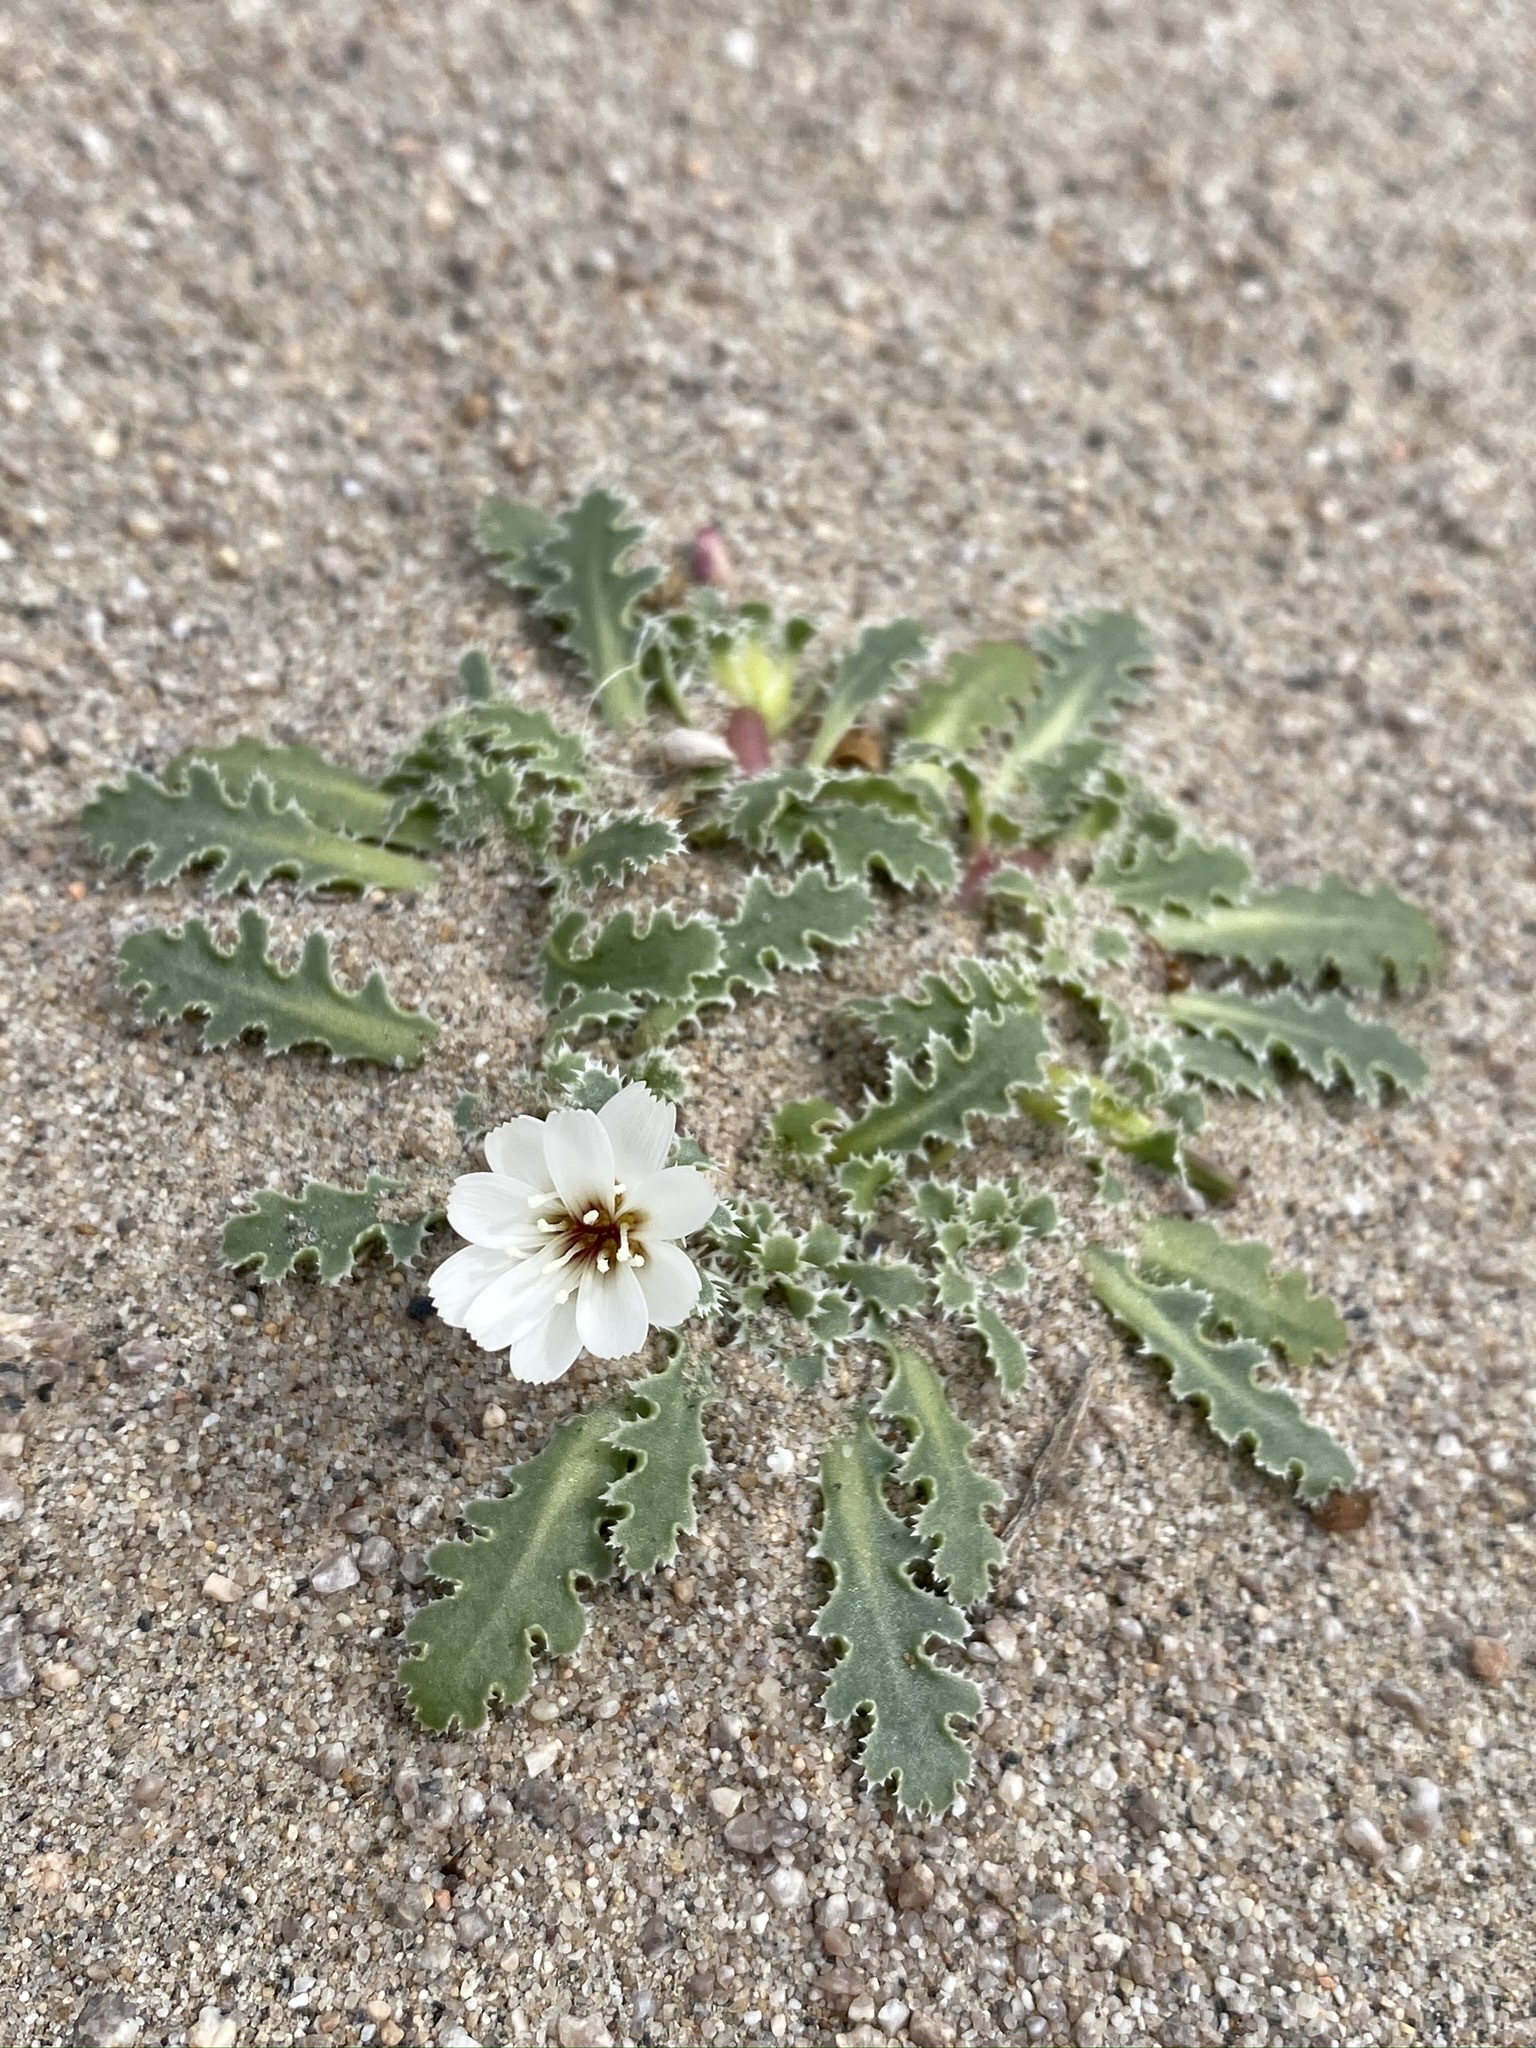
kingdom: Plantae
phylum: Tracheophyta
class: Magnoliopsida
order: Asterales
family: Asteraceae
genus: Glyptopleura
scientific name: Glyptopleura marginata
